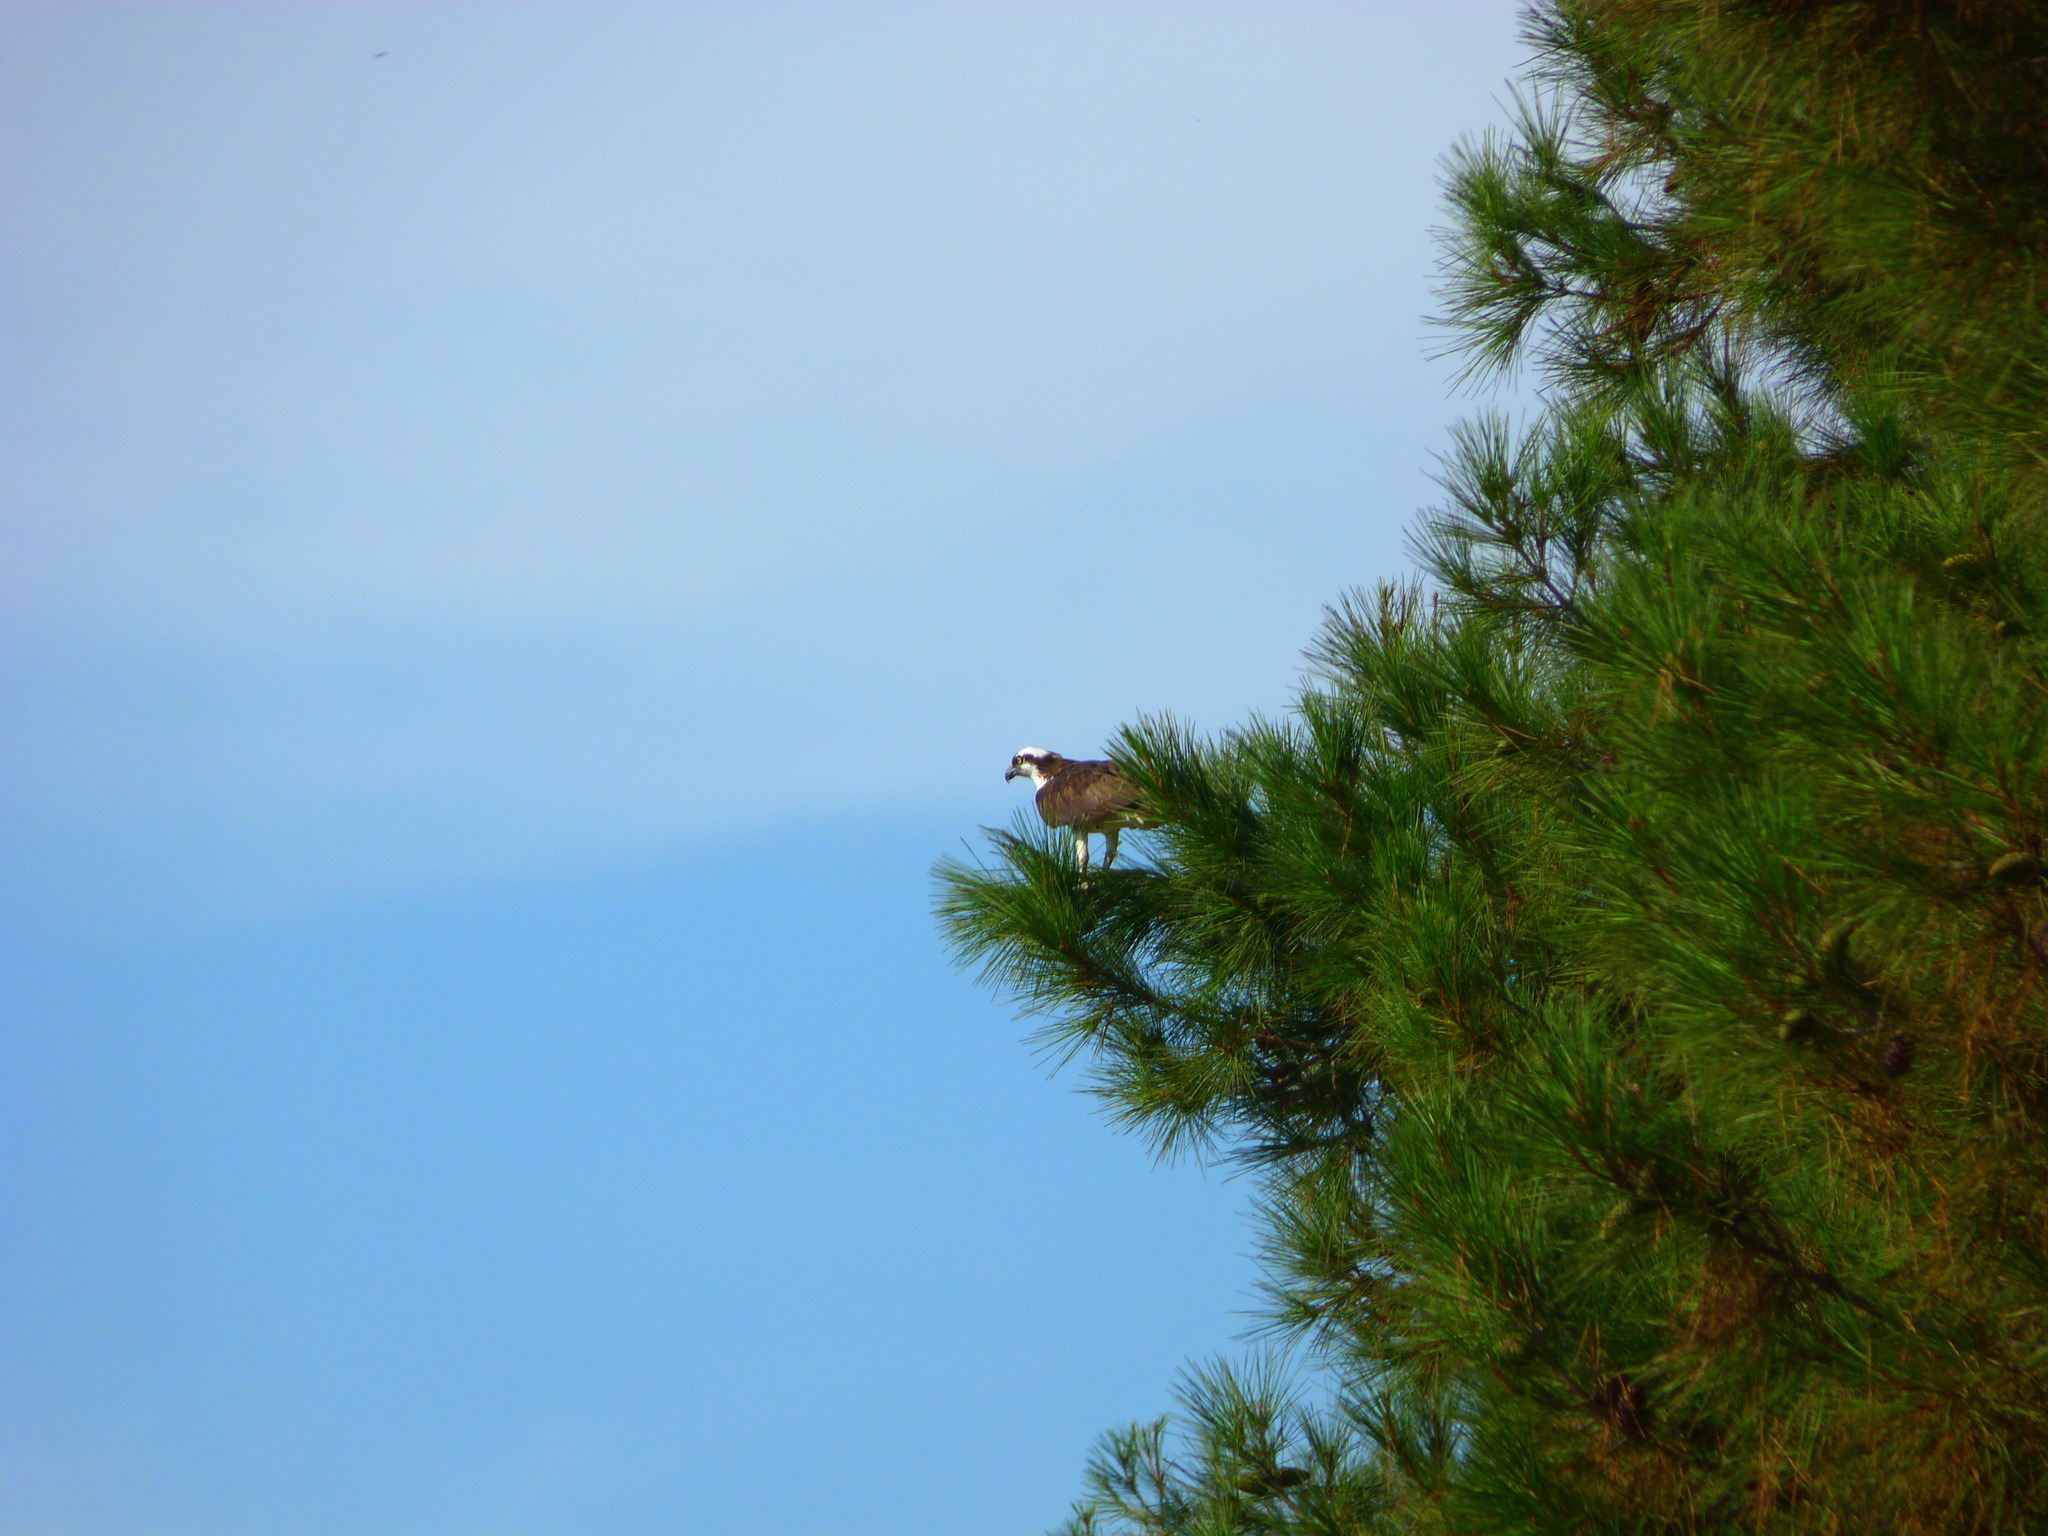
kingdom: Animalia
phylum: Chordata
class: Aves
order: Accipitriformes
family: Pandionidae
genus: Pandion
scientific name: Pandion haliaetus
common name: Osprey
